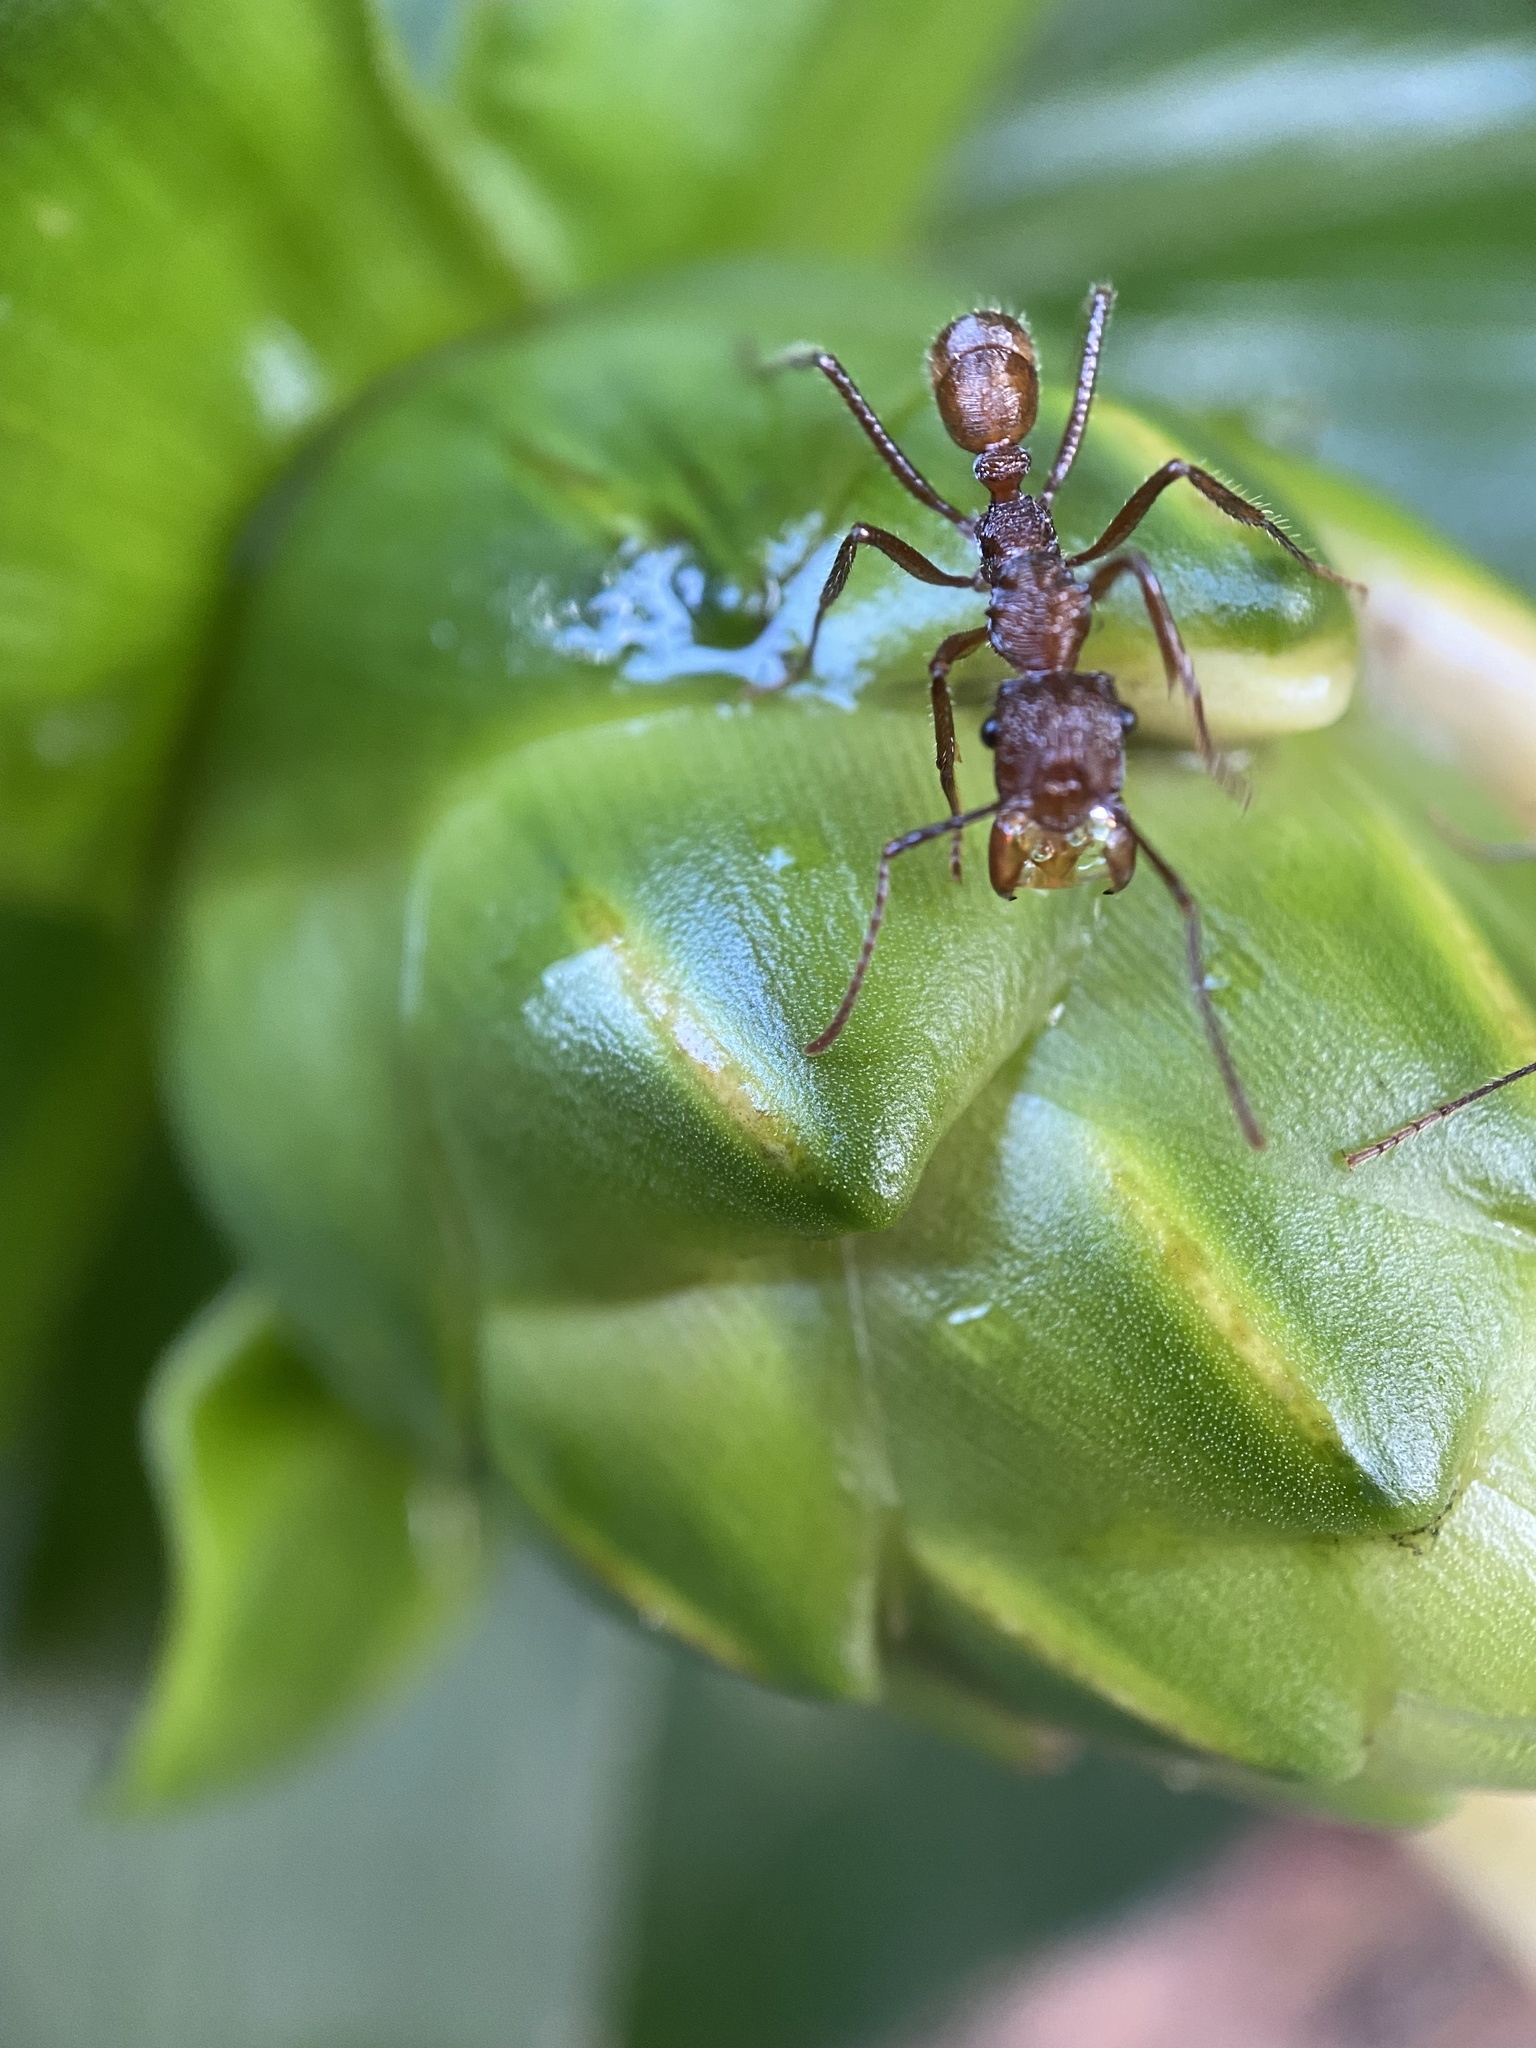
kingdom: Animalia
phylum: Arthropoda
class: Insecta
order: Hymenoptera
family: Formicidae
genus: Ectatomma
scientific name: Ectatomma tuberculatum
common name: Ant
